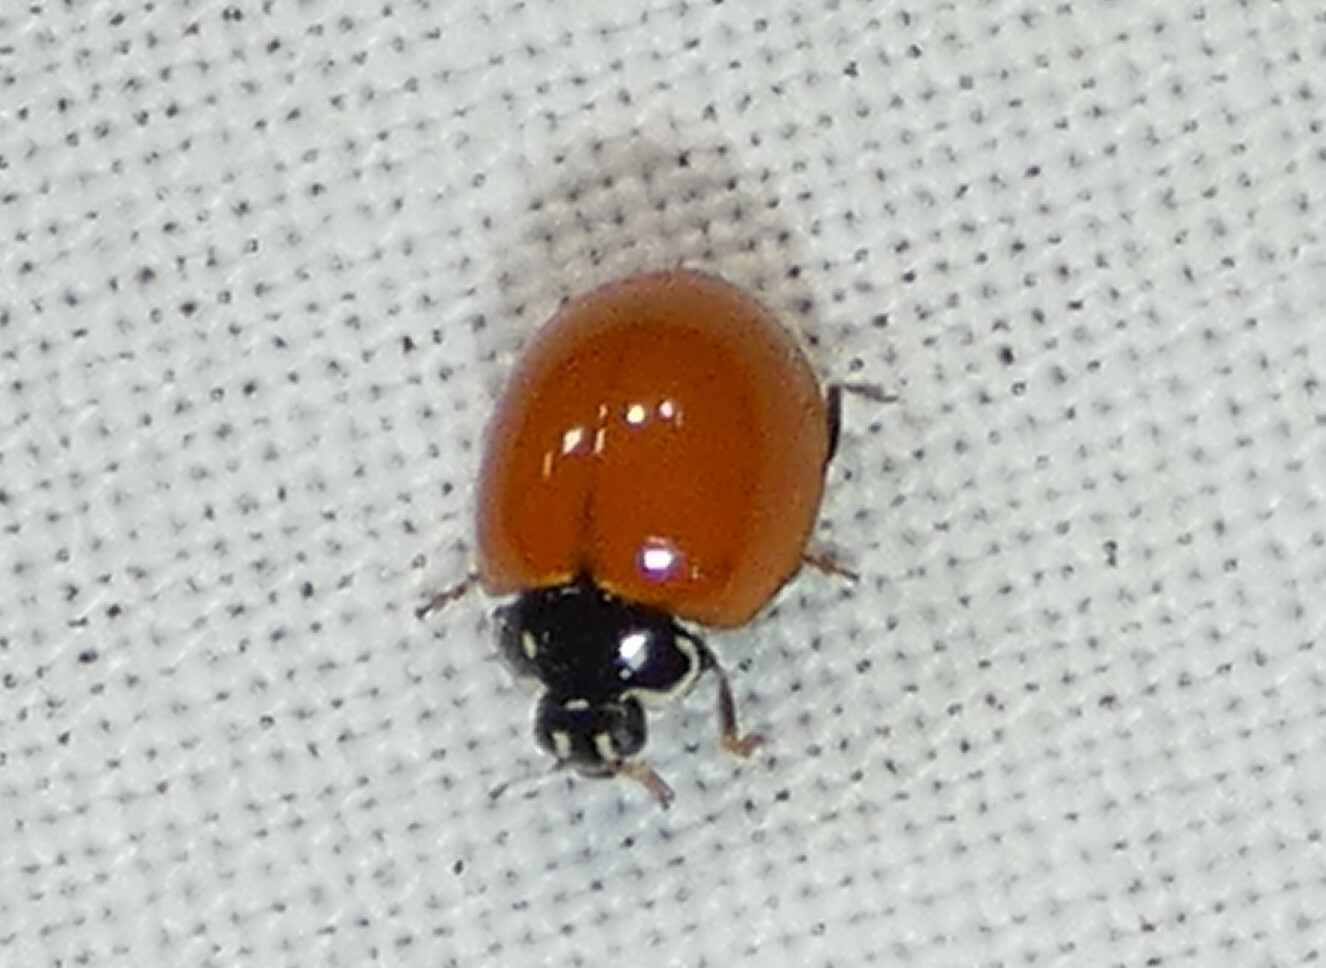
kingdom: Animalia
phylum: Arthropoda
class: Insecta
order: Coleoptera
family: Coccinellidae
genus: Cycloneda
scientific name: Cycloneda sanguinea
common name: Ladybird beetle
